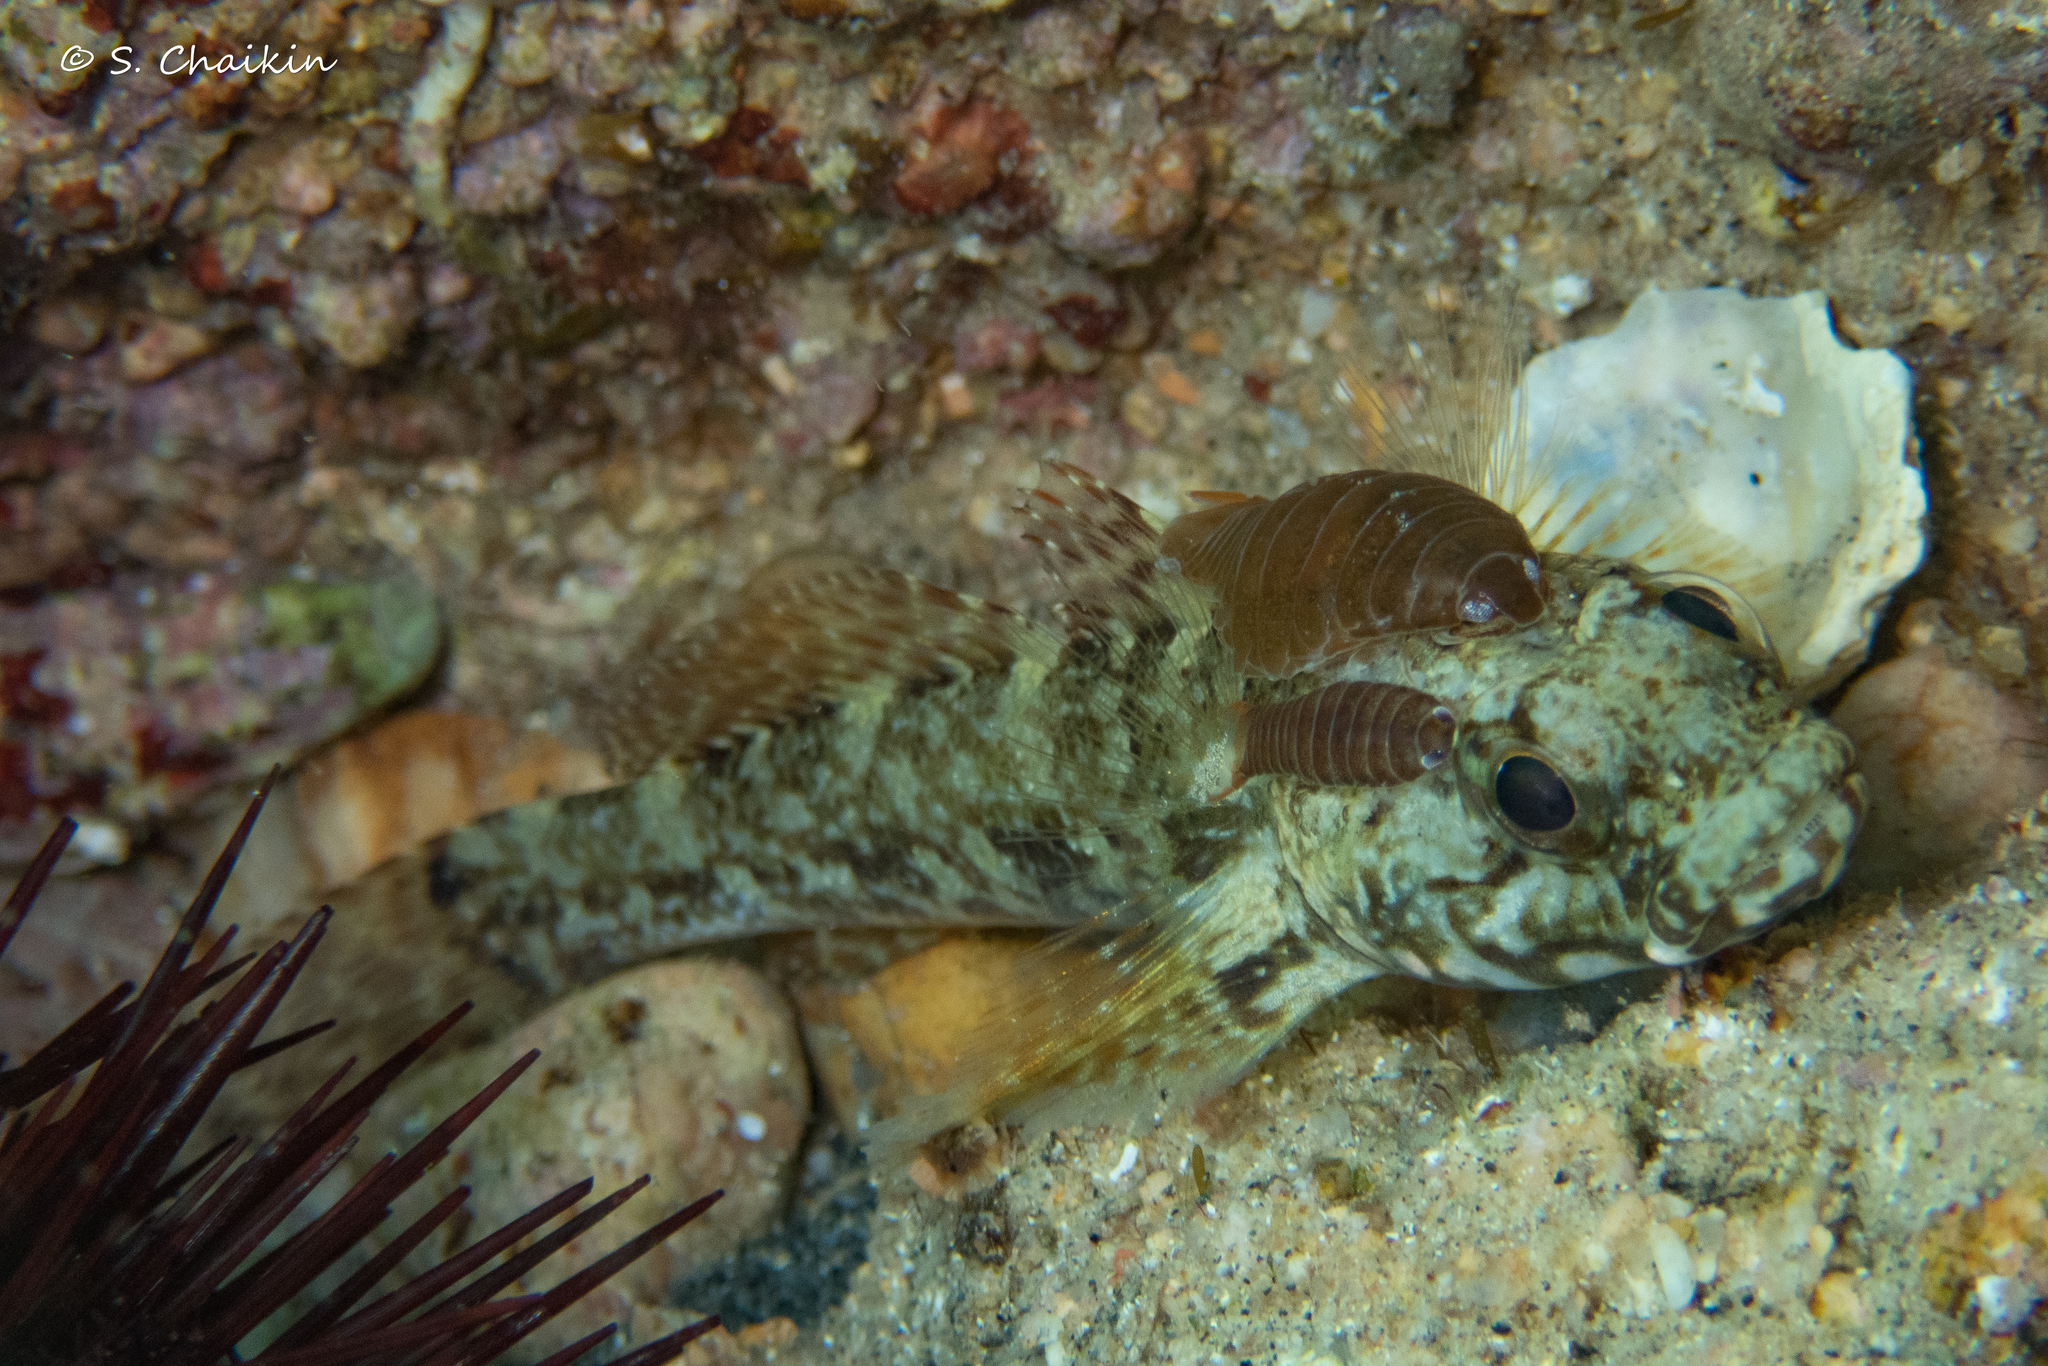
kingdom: Animalia
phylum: Chordata
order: Perciformes
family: Gobiidae
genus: Gobius
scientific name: Gobius paganellus
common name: Rock goby
